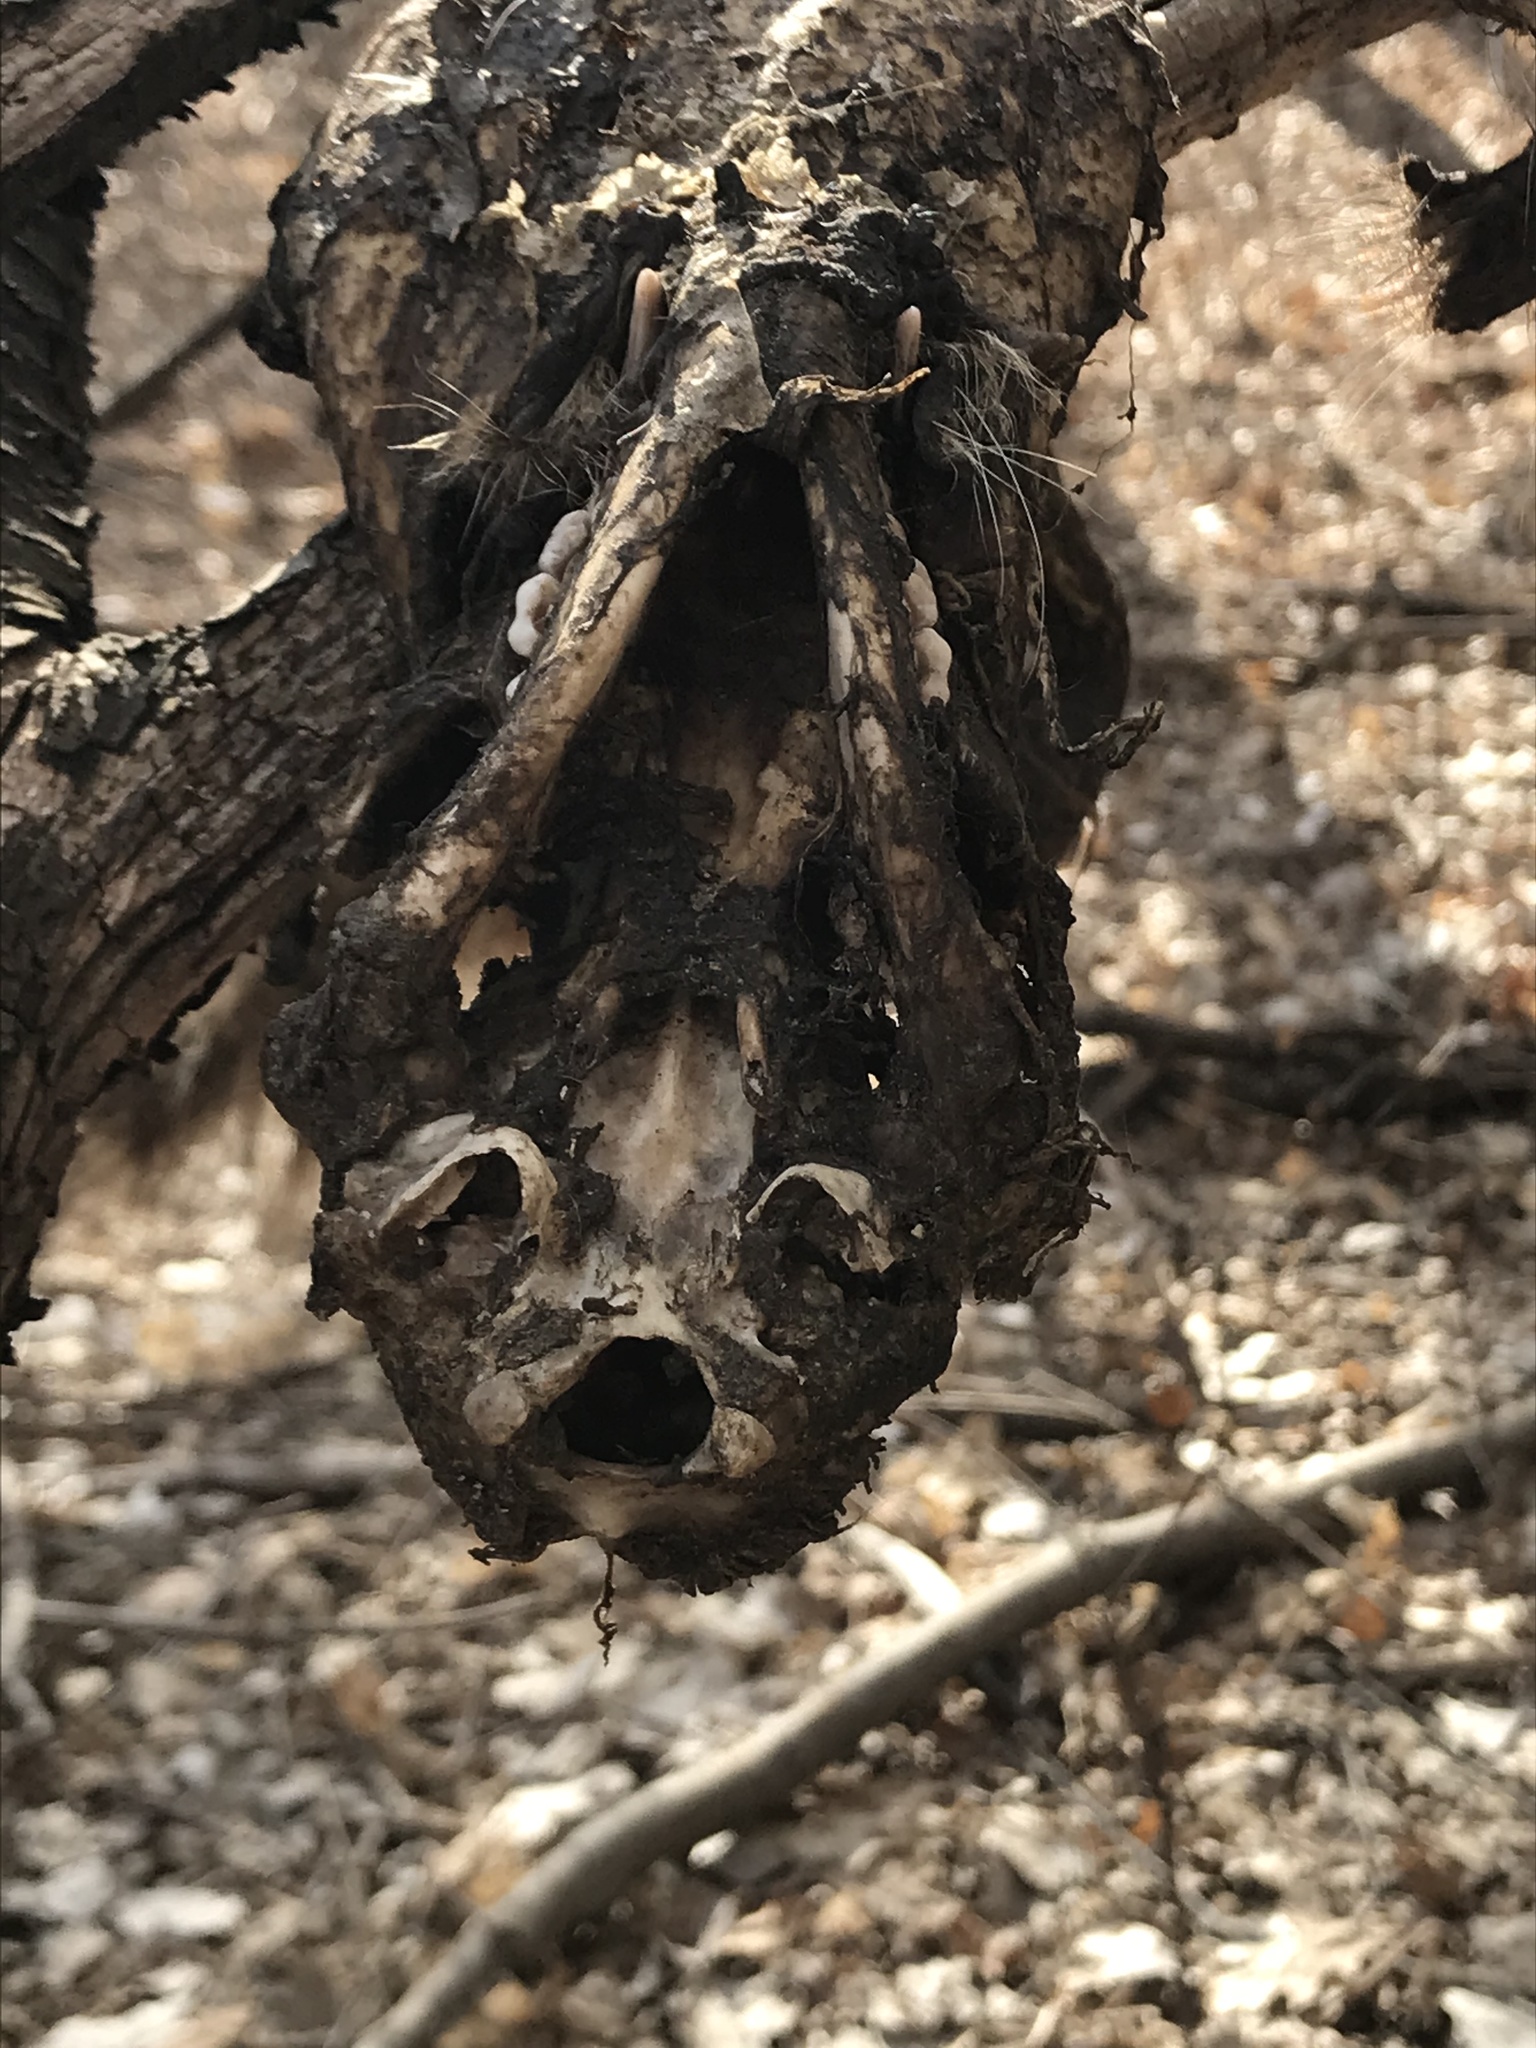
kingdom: Animalia
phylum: Chordata
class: Mammalia
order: Carnivora
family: Procyonidae
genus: Procyon
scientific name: Procyon lotor
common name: Raccoon
